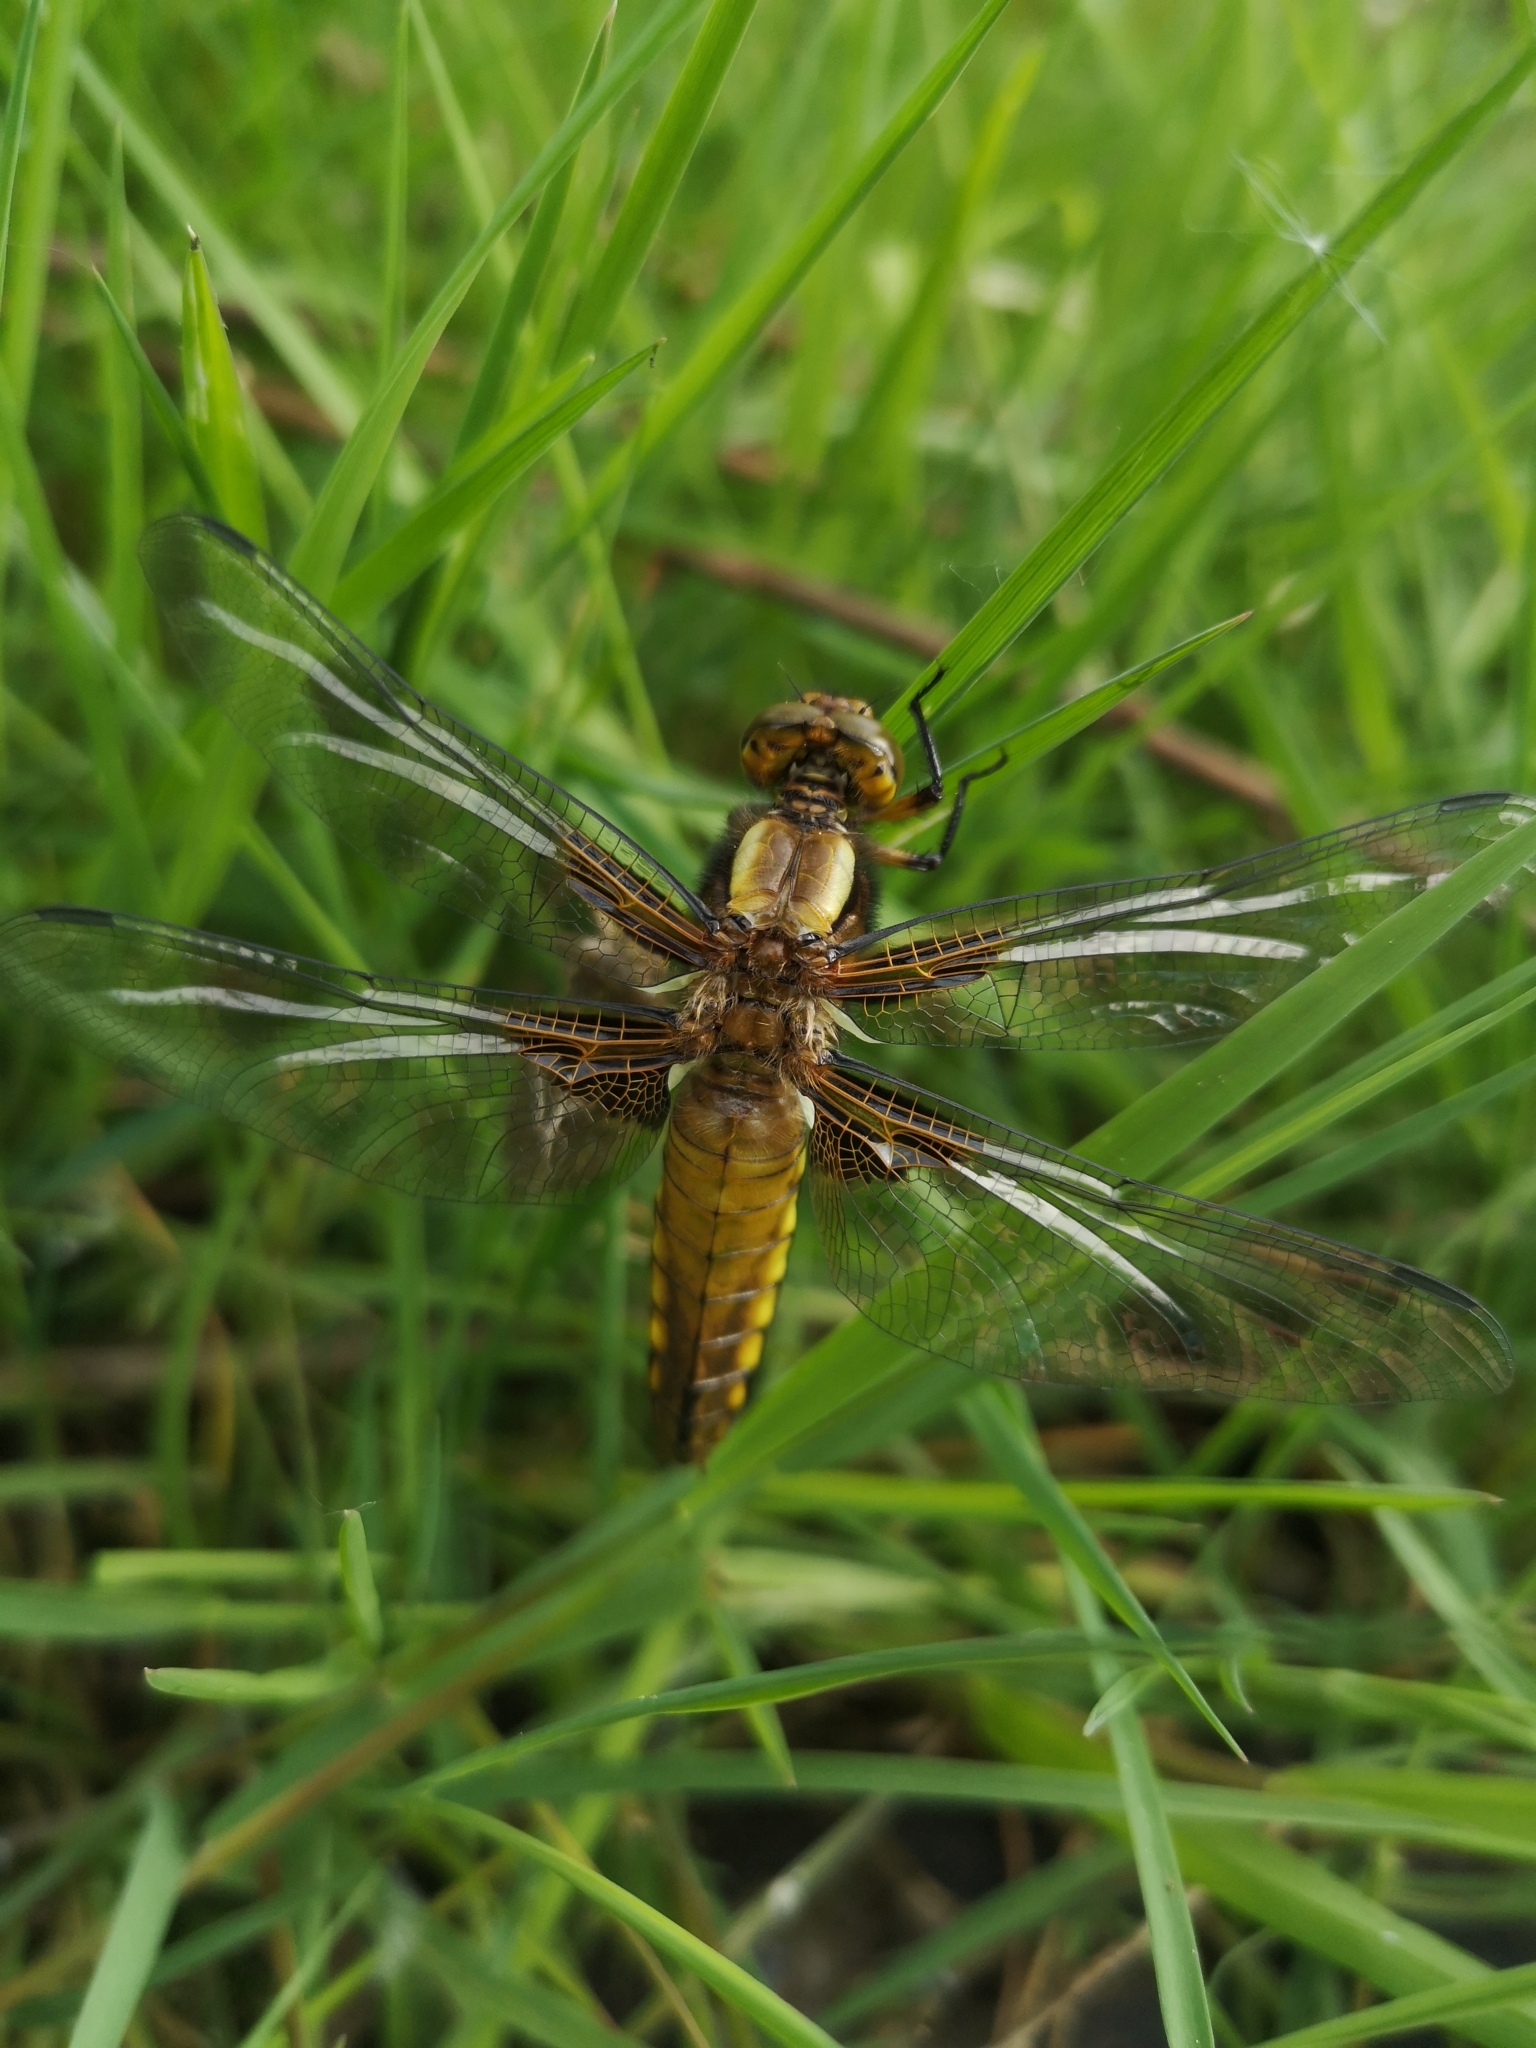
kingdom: Animalia
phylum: Arthropoda
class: Insecta
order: Odonata
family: Libellulidae
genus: Libellula
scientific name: Libellula depressa
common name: Broad-bodied chaser
